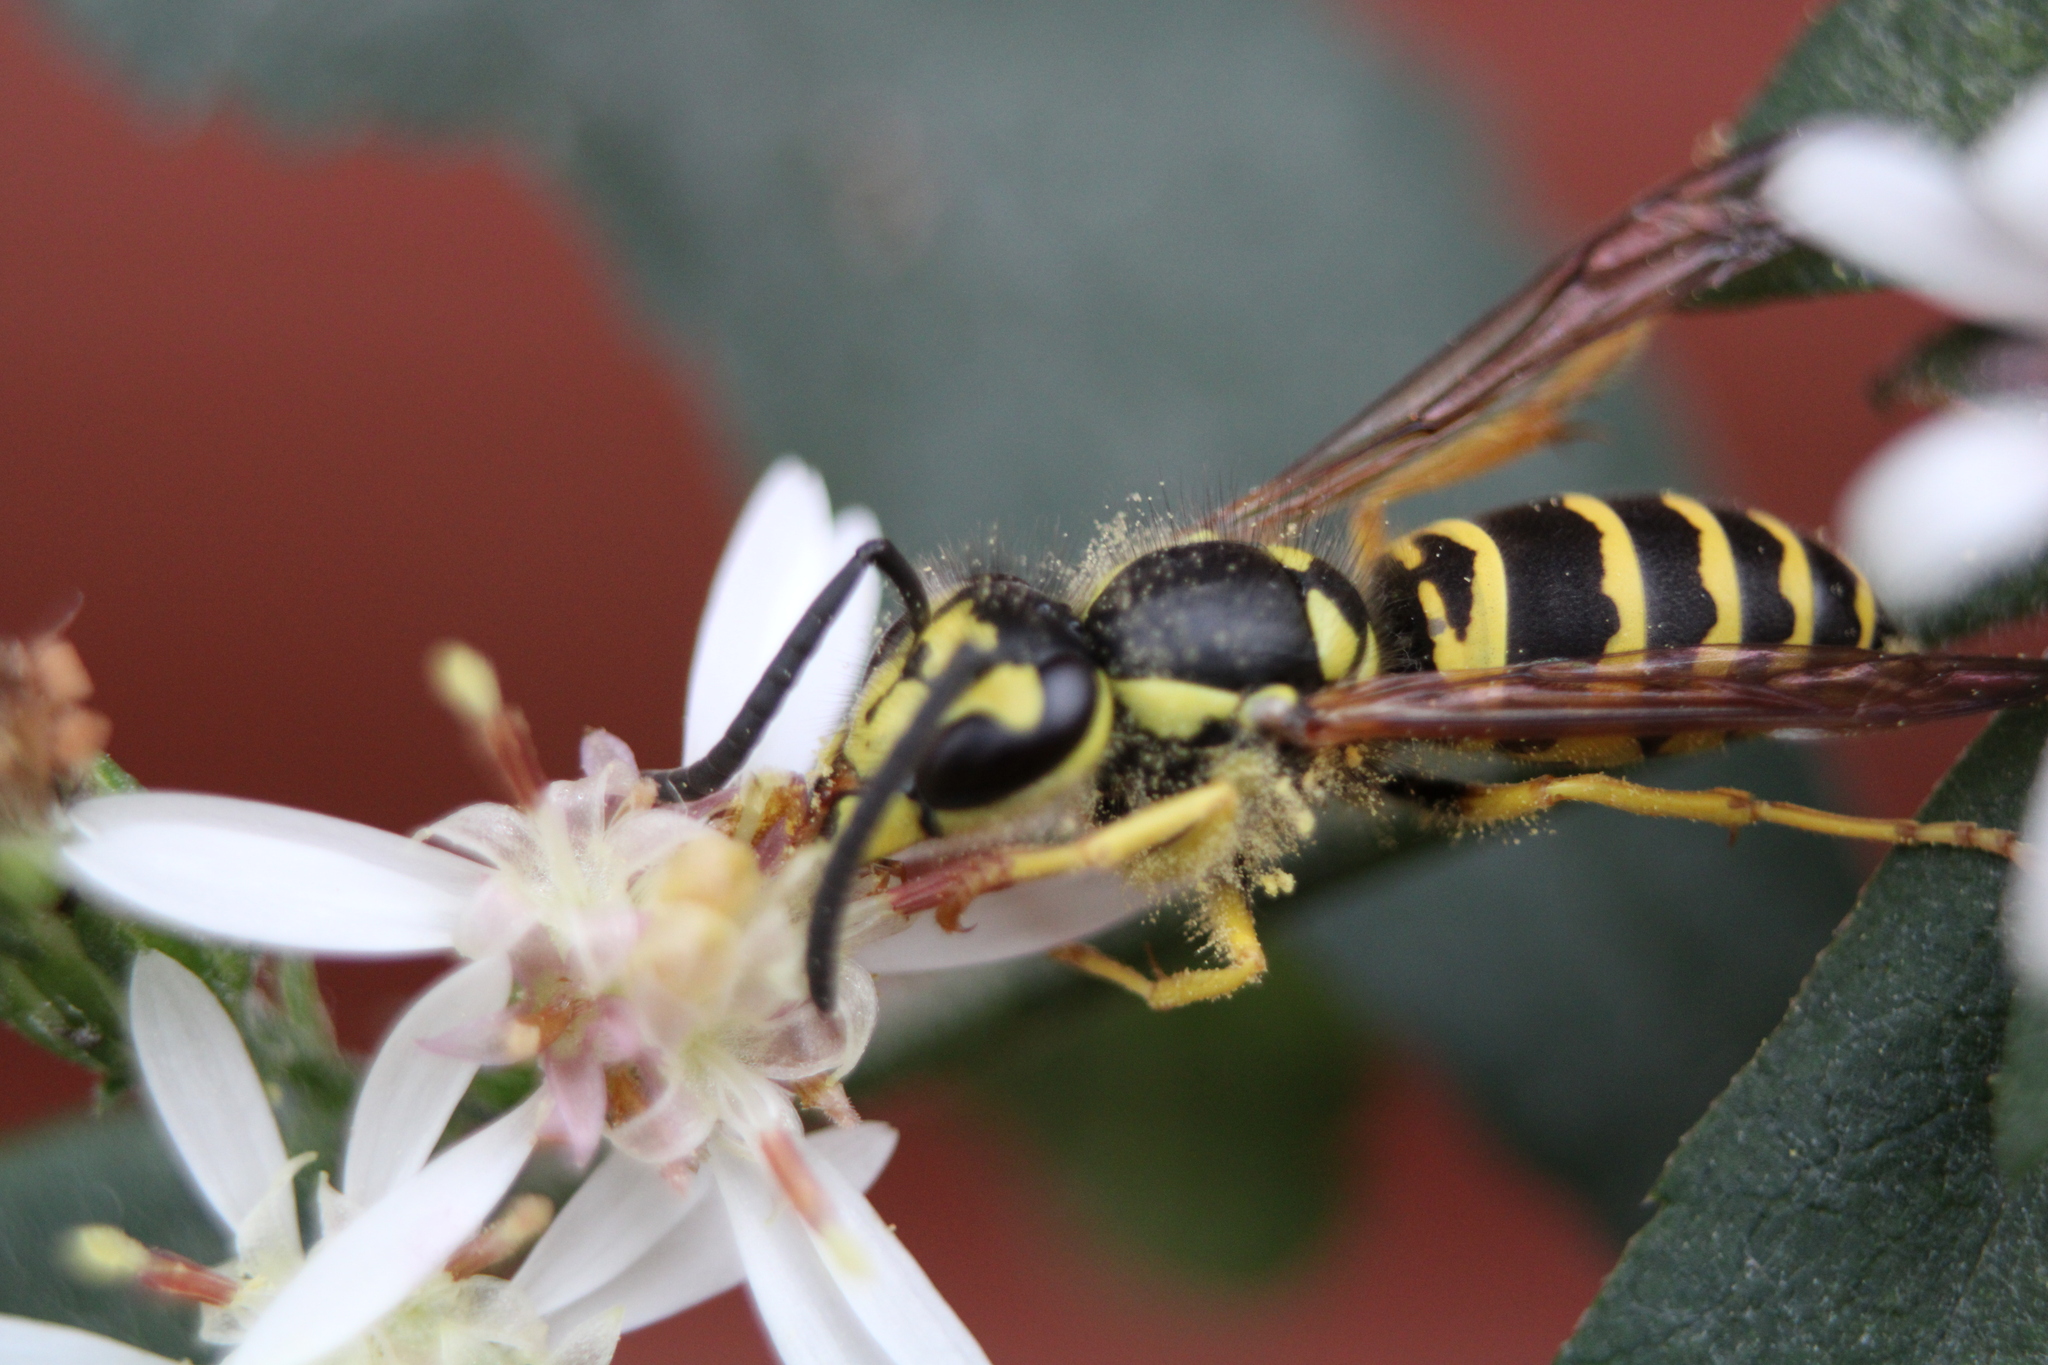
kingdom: Animalia
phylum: Arthropoda
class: Insecta
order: Hymenoptera
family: Vespidae
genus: Vespula
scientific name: Vespula maculifrons
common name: Eastern yellowjacket
